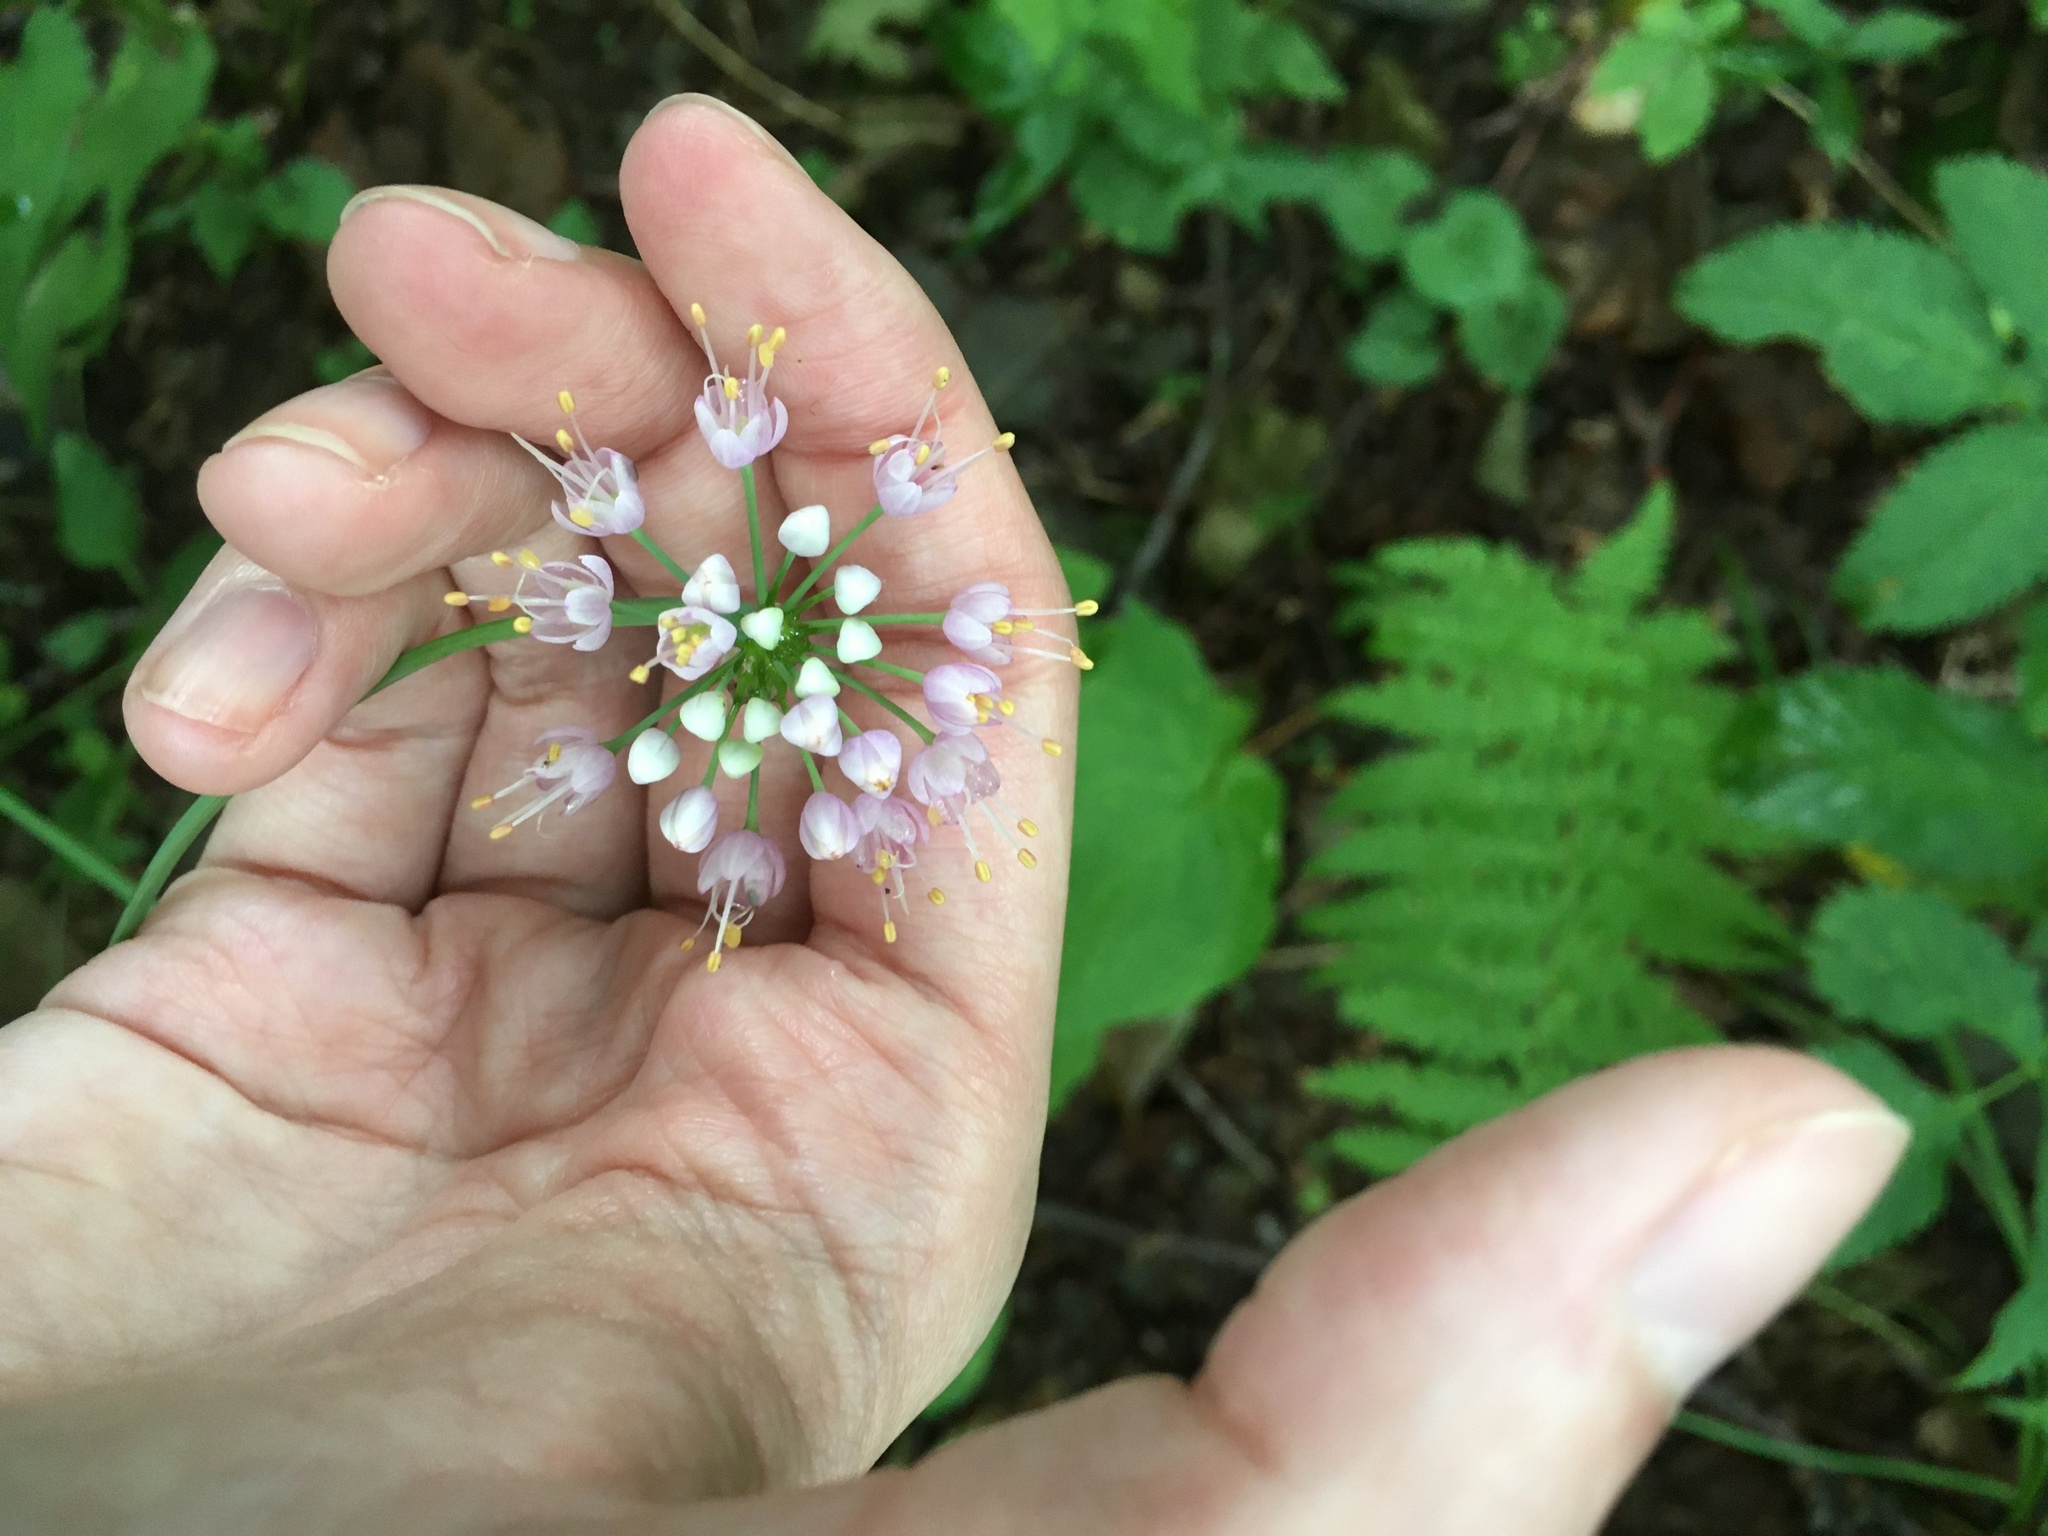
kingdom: Plantae
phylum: Tracheophyta
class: Liliopsida
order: Asparagales
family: Amaryllidaceae
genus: Allium
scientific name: Allium cernuum
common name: Nodding onion
